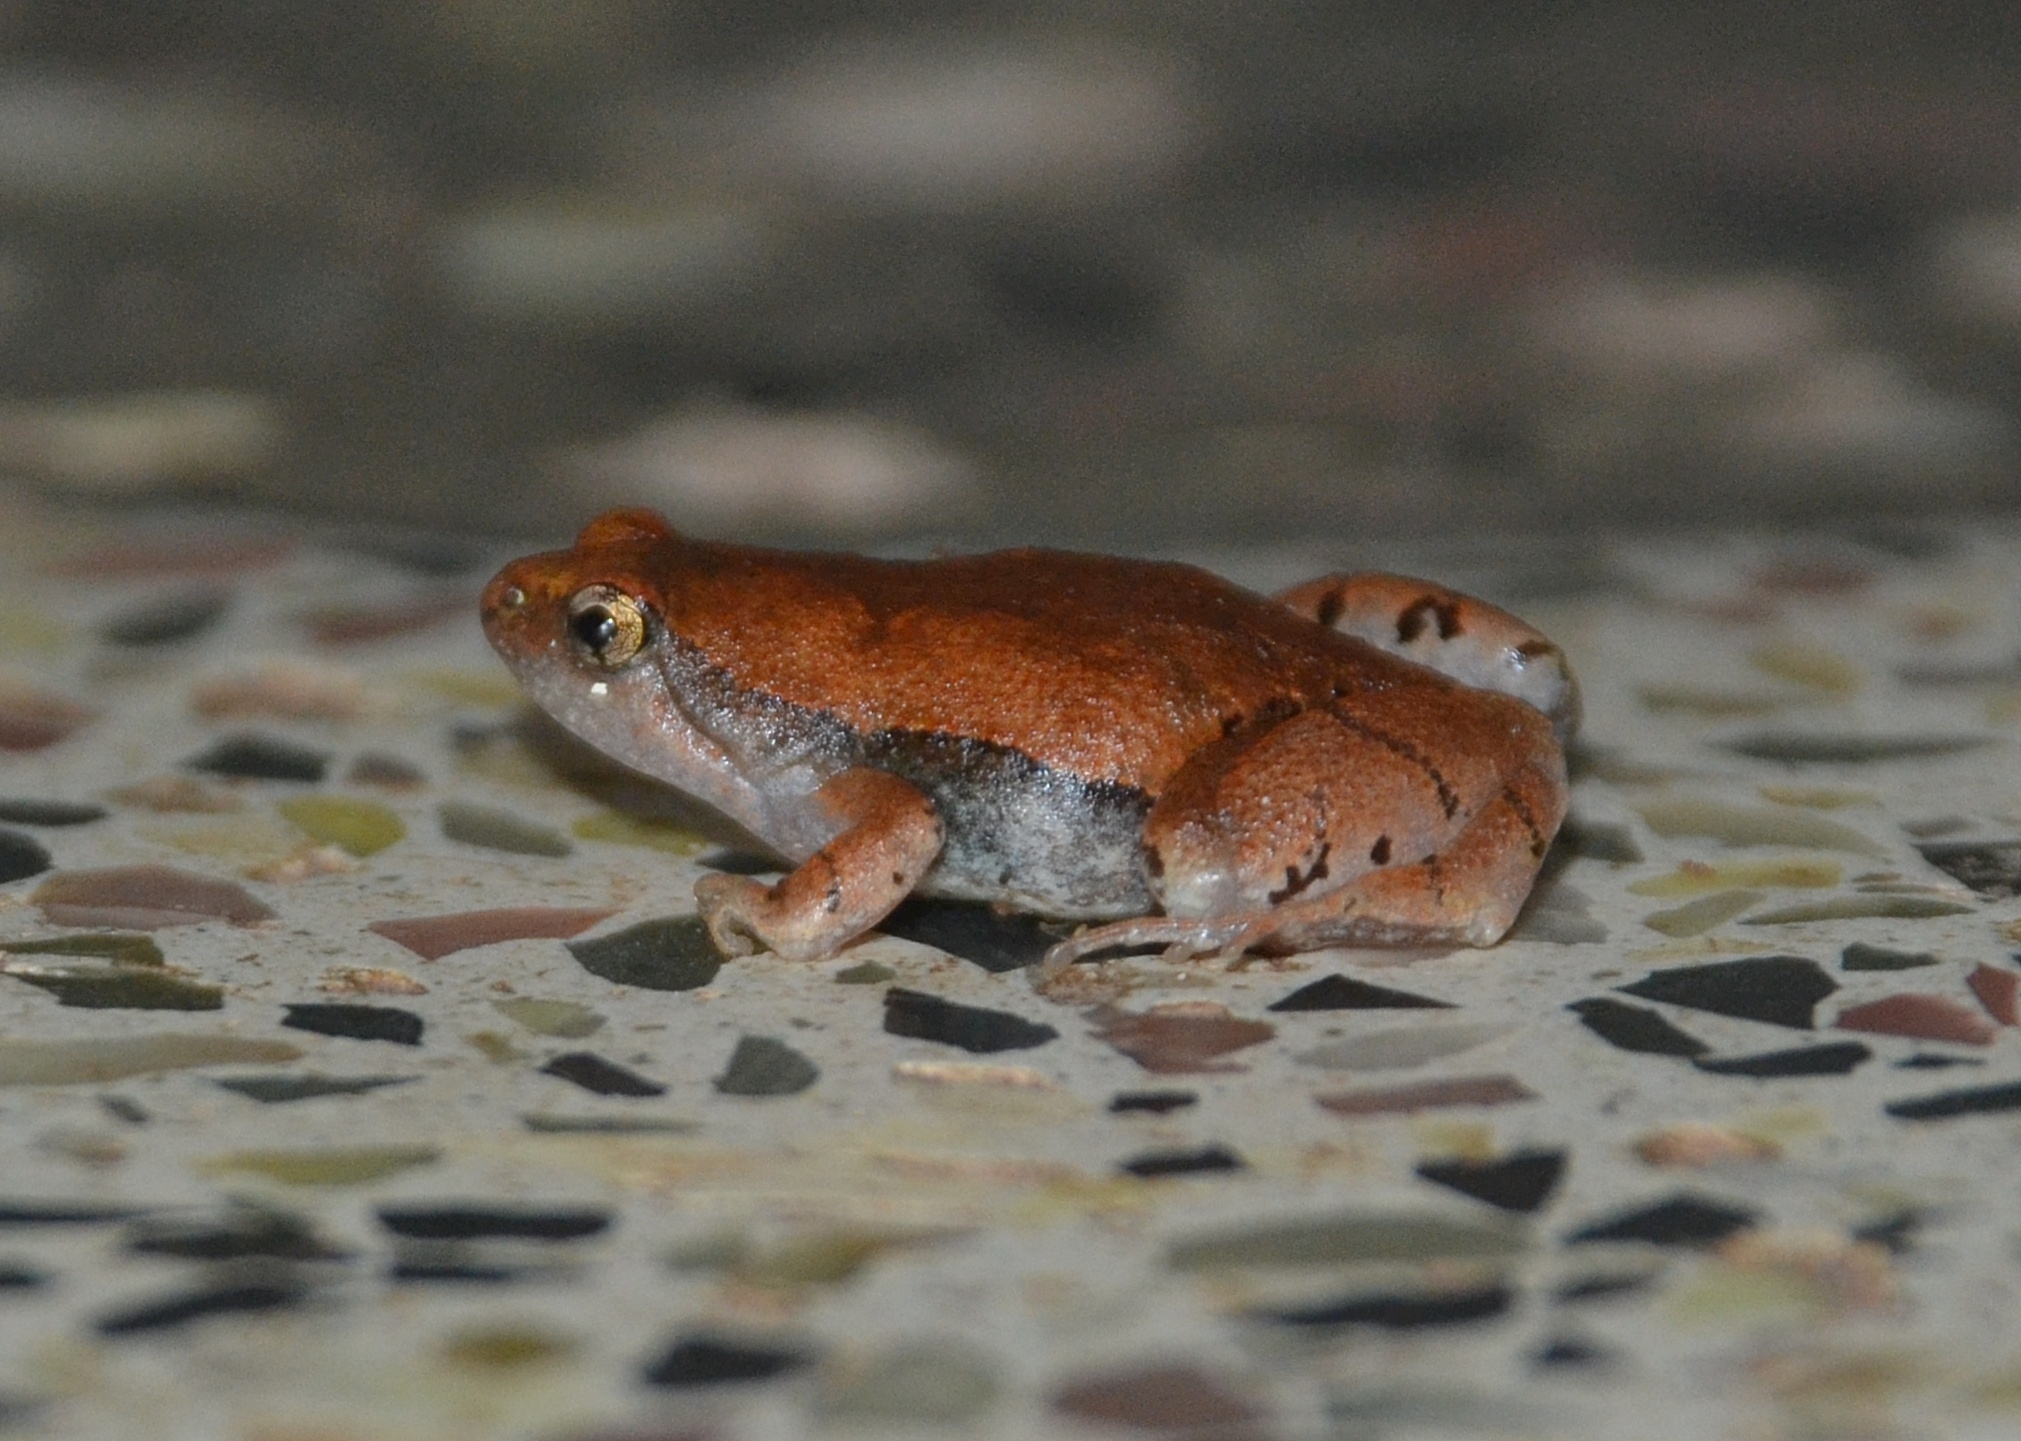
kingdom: Animalia
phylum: Chordata
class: Amphibia
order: Anura
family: Microhylidae
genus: Microhyla
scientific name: Microhyla rubra
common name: Guangdong rice frog
